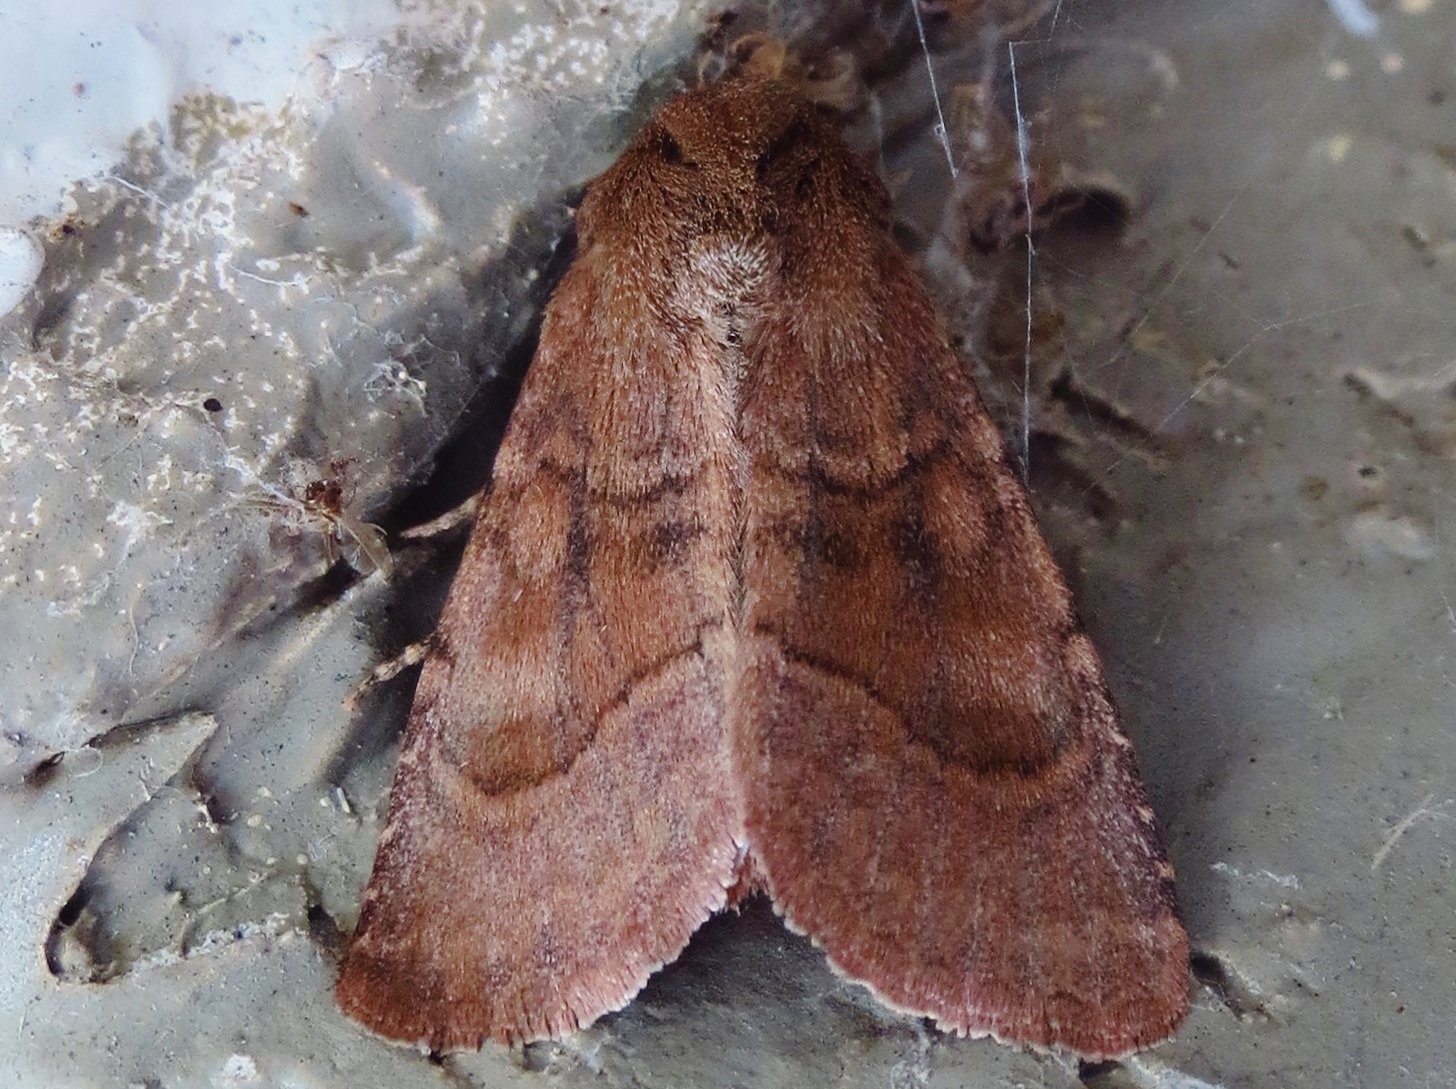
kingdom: Animalia
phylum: Arthropoda
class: Insecta
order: Lepidoptera
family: Noctuidae
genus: Nephelodes
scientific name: Nephelodes minians
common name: Bronzed cutworm
